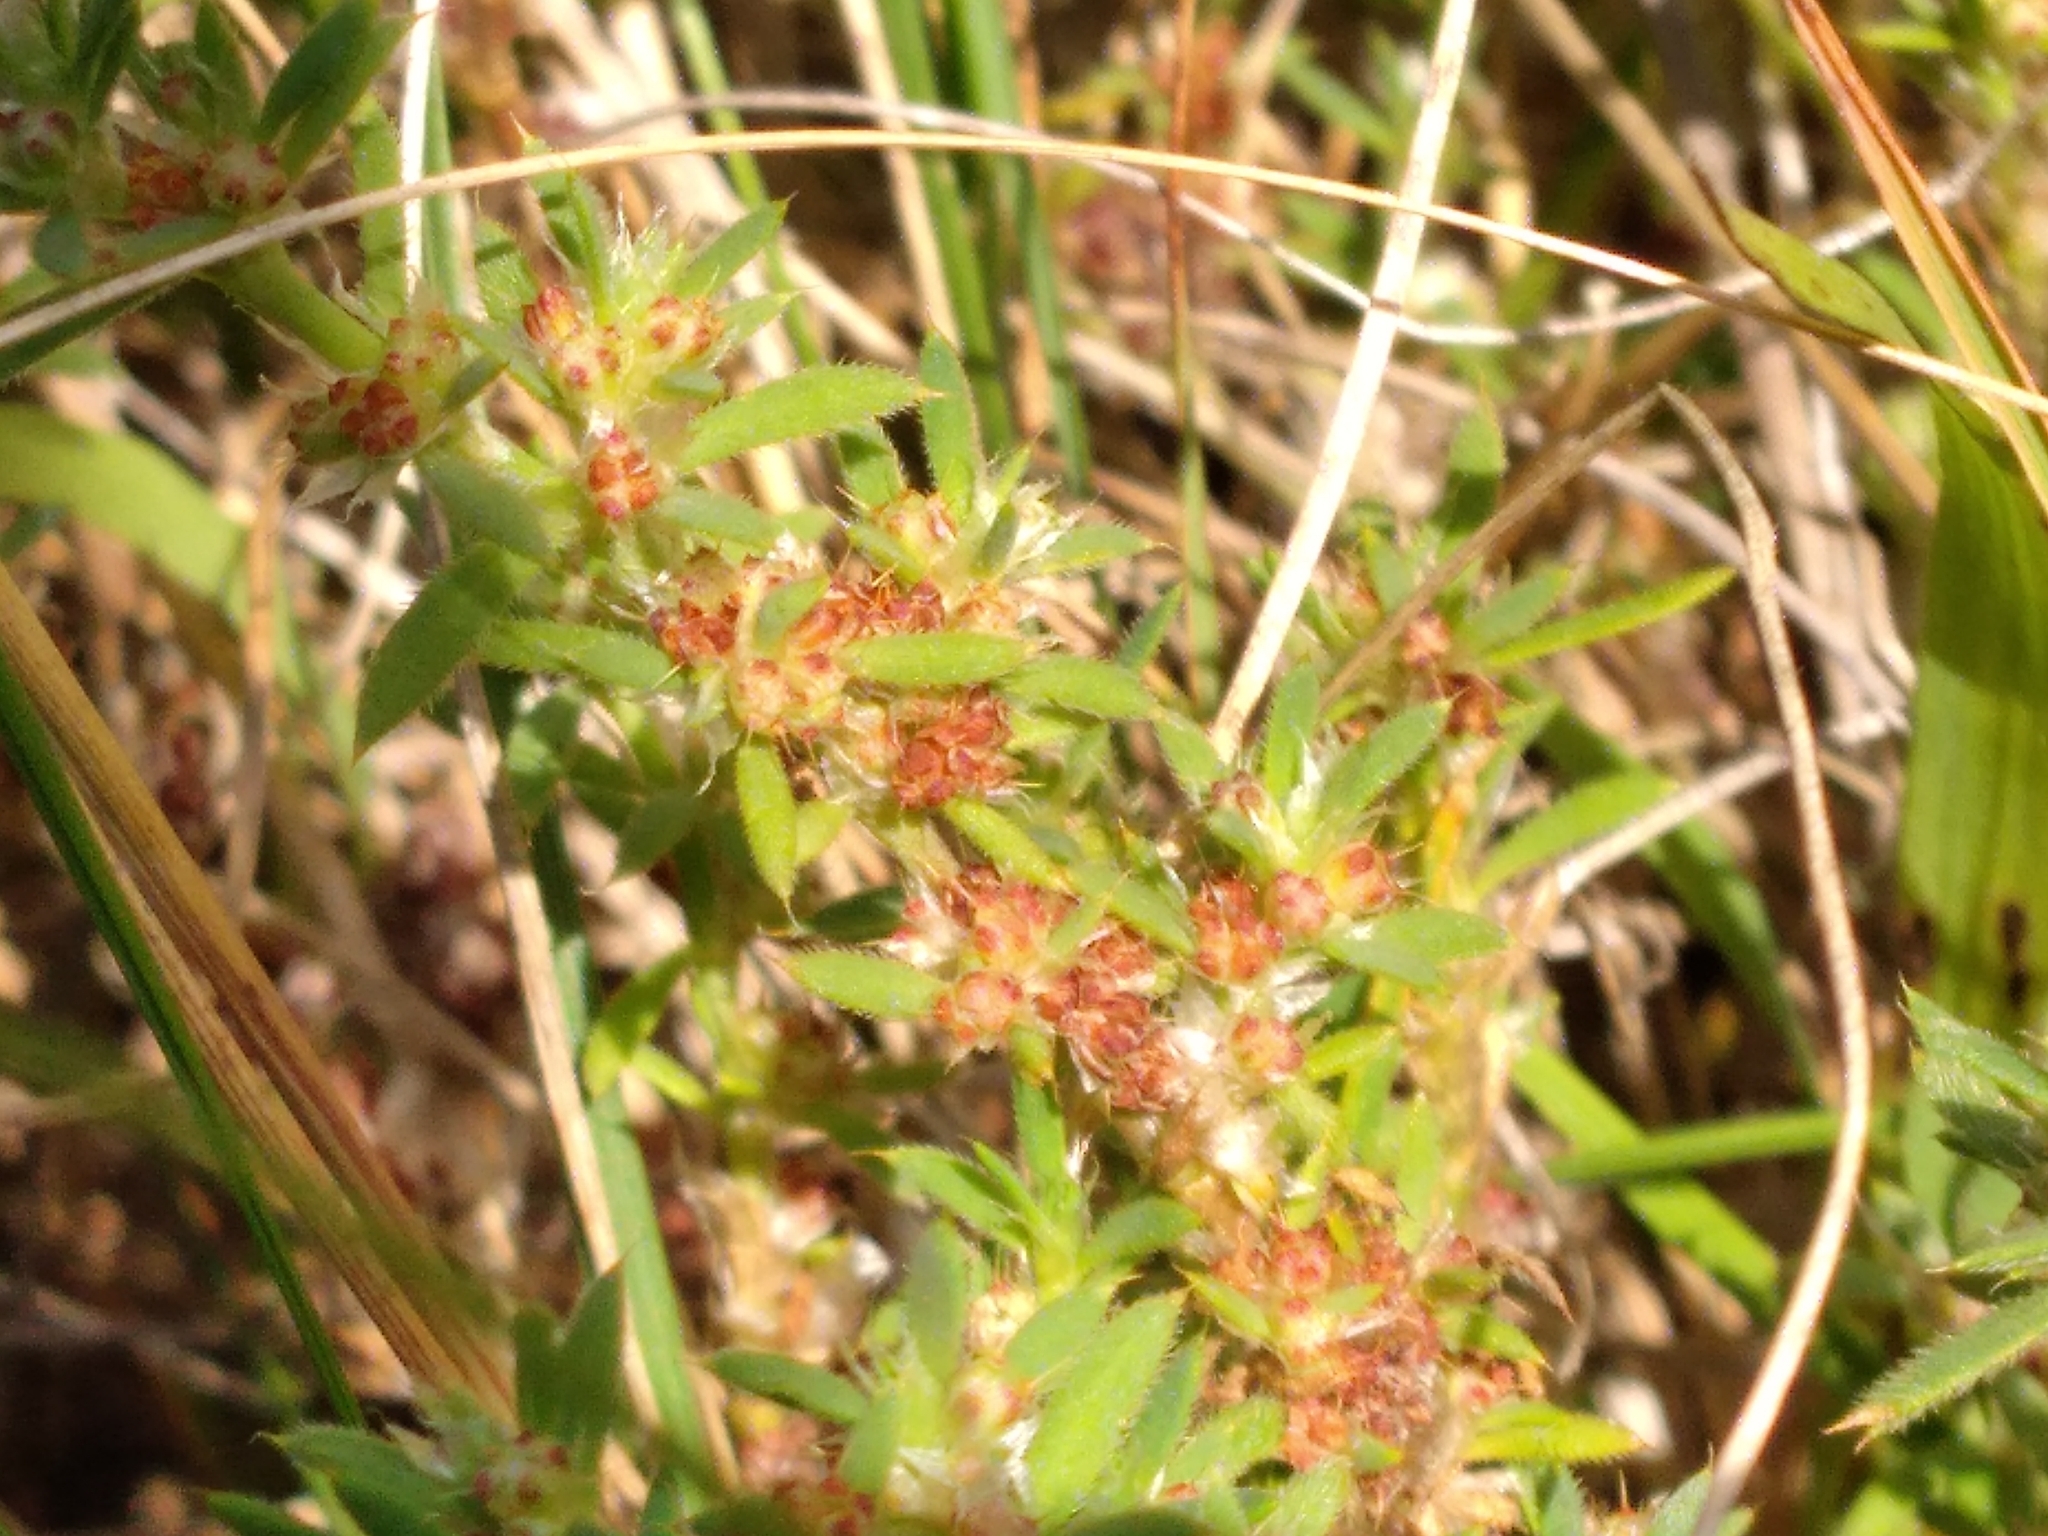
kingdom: Plantae
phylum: Tracheophyta
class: Magnoliopsida
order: Caryophyllales
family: Caryophyllaceae
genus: Paronychia
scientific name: Paronychia brasiliana
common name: Brazilian whitlow
